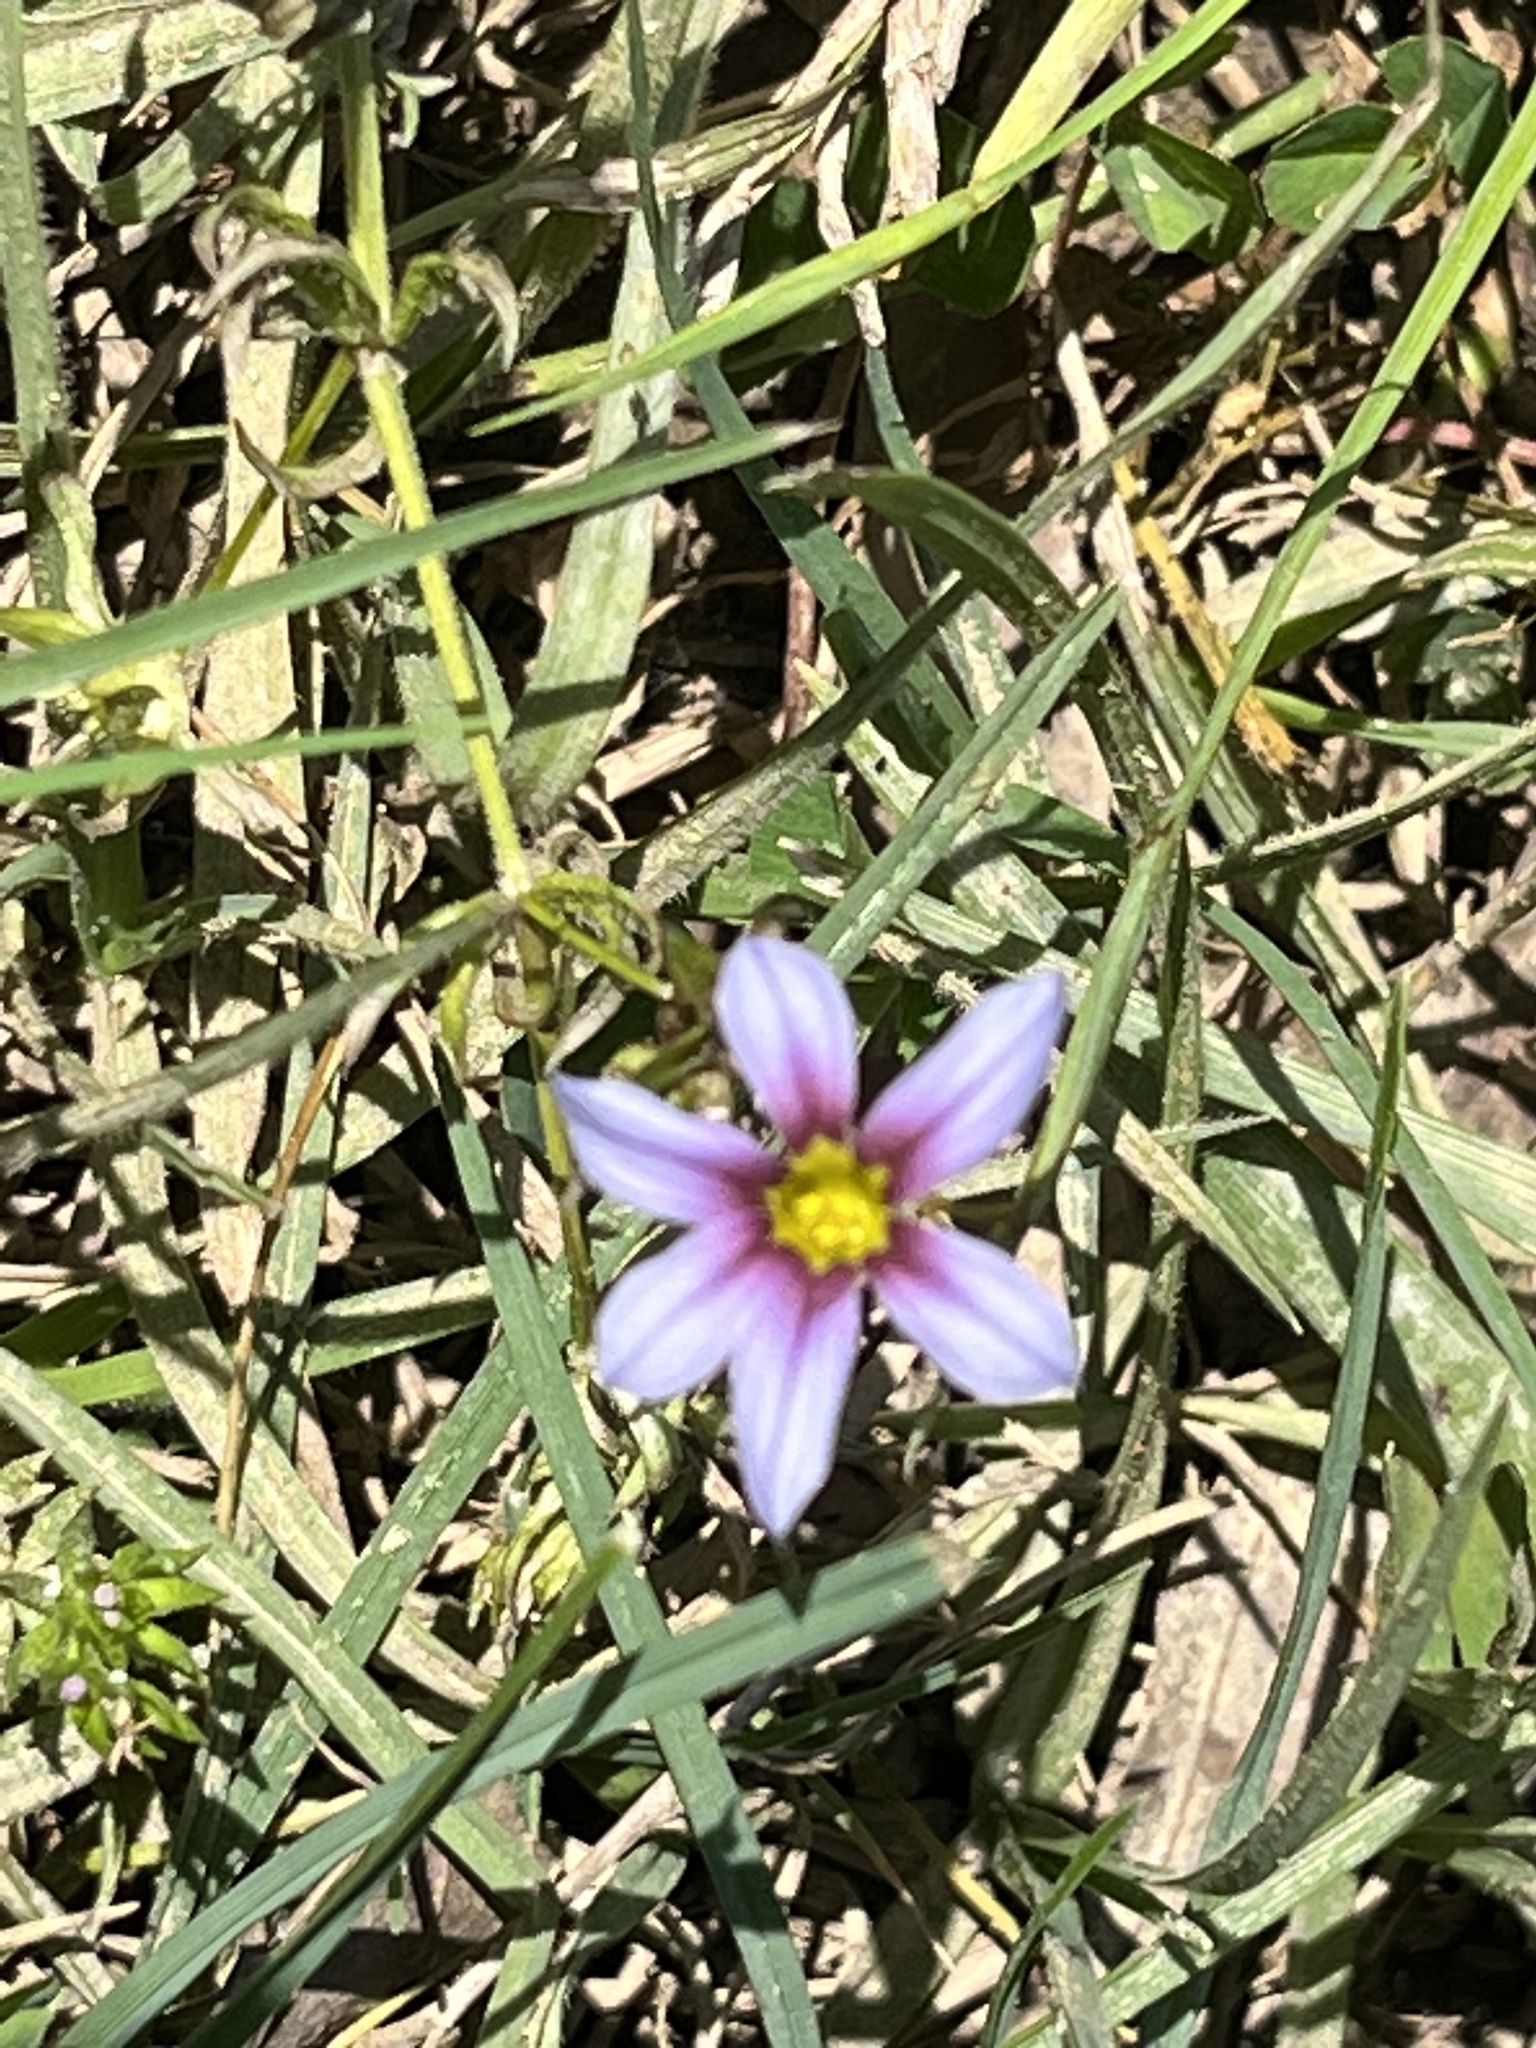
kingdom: Plantae
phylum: Tracheophyta
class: Liliopsida
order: Asparagales
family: Iridaceae
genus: Sisyrinchium
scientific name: Sisyrinchium micranthum
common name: Bermuda pigroot
